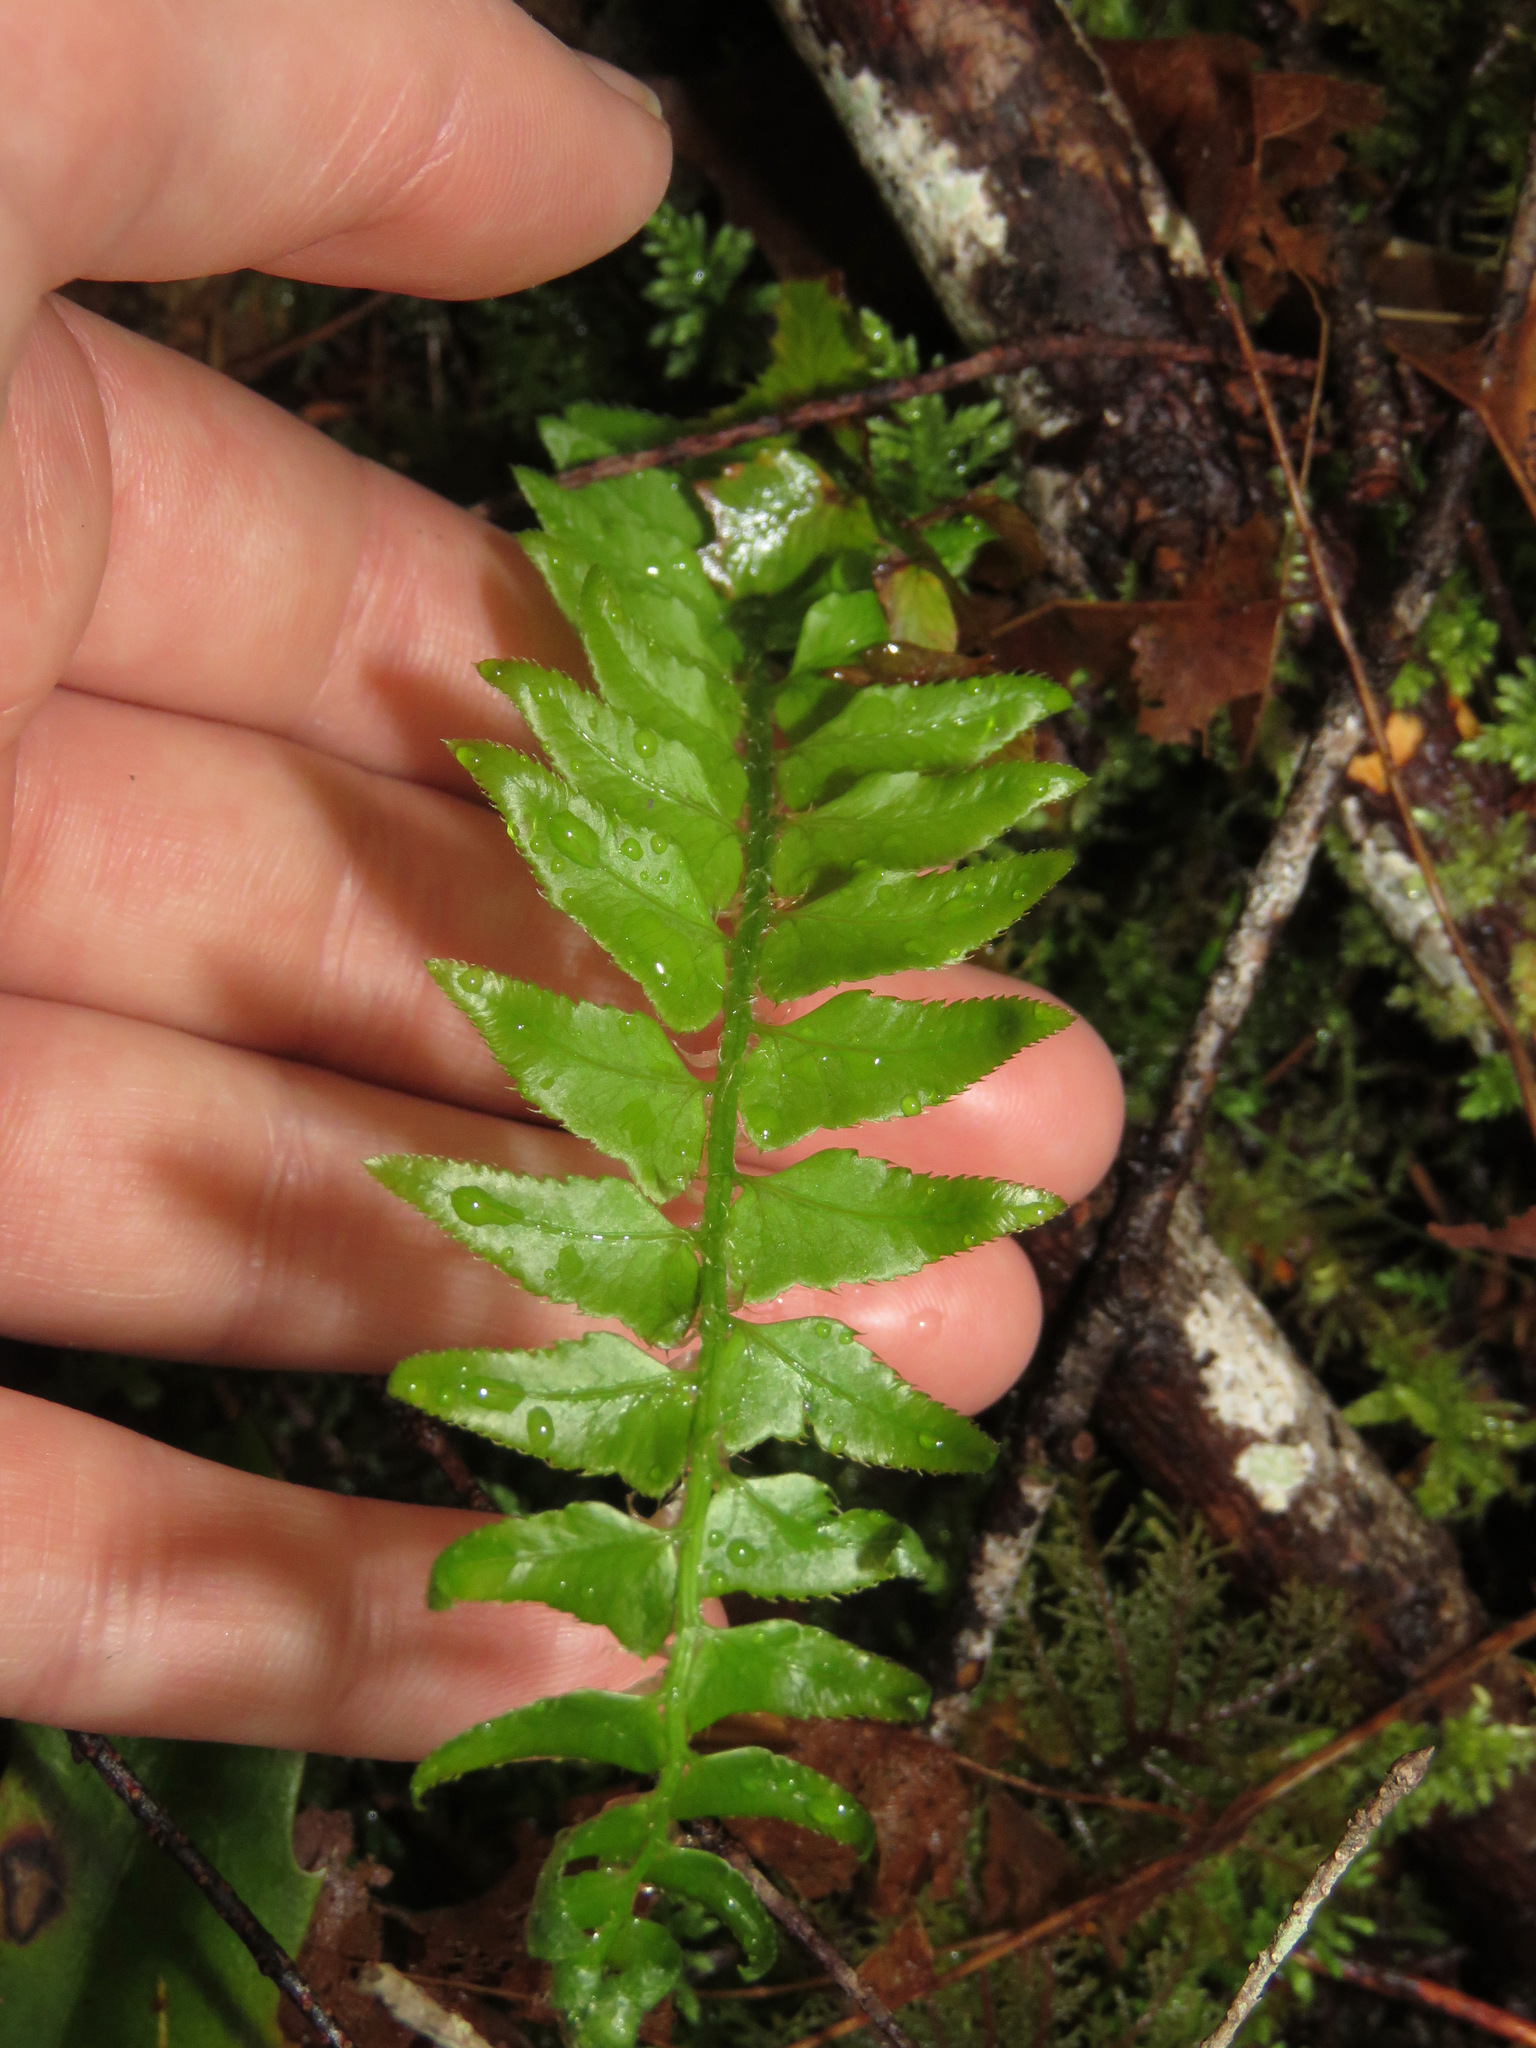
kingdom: Plantae
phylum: Tracheophyta
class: Polypodiopsida
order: Polypodiales
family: Dryopteridaceae
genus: Polystichum
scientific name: Polystichum munitum
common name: Western sword-fern
